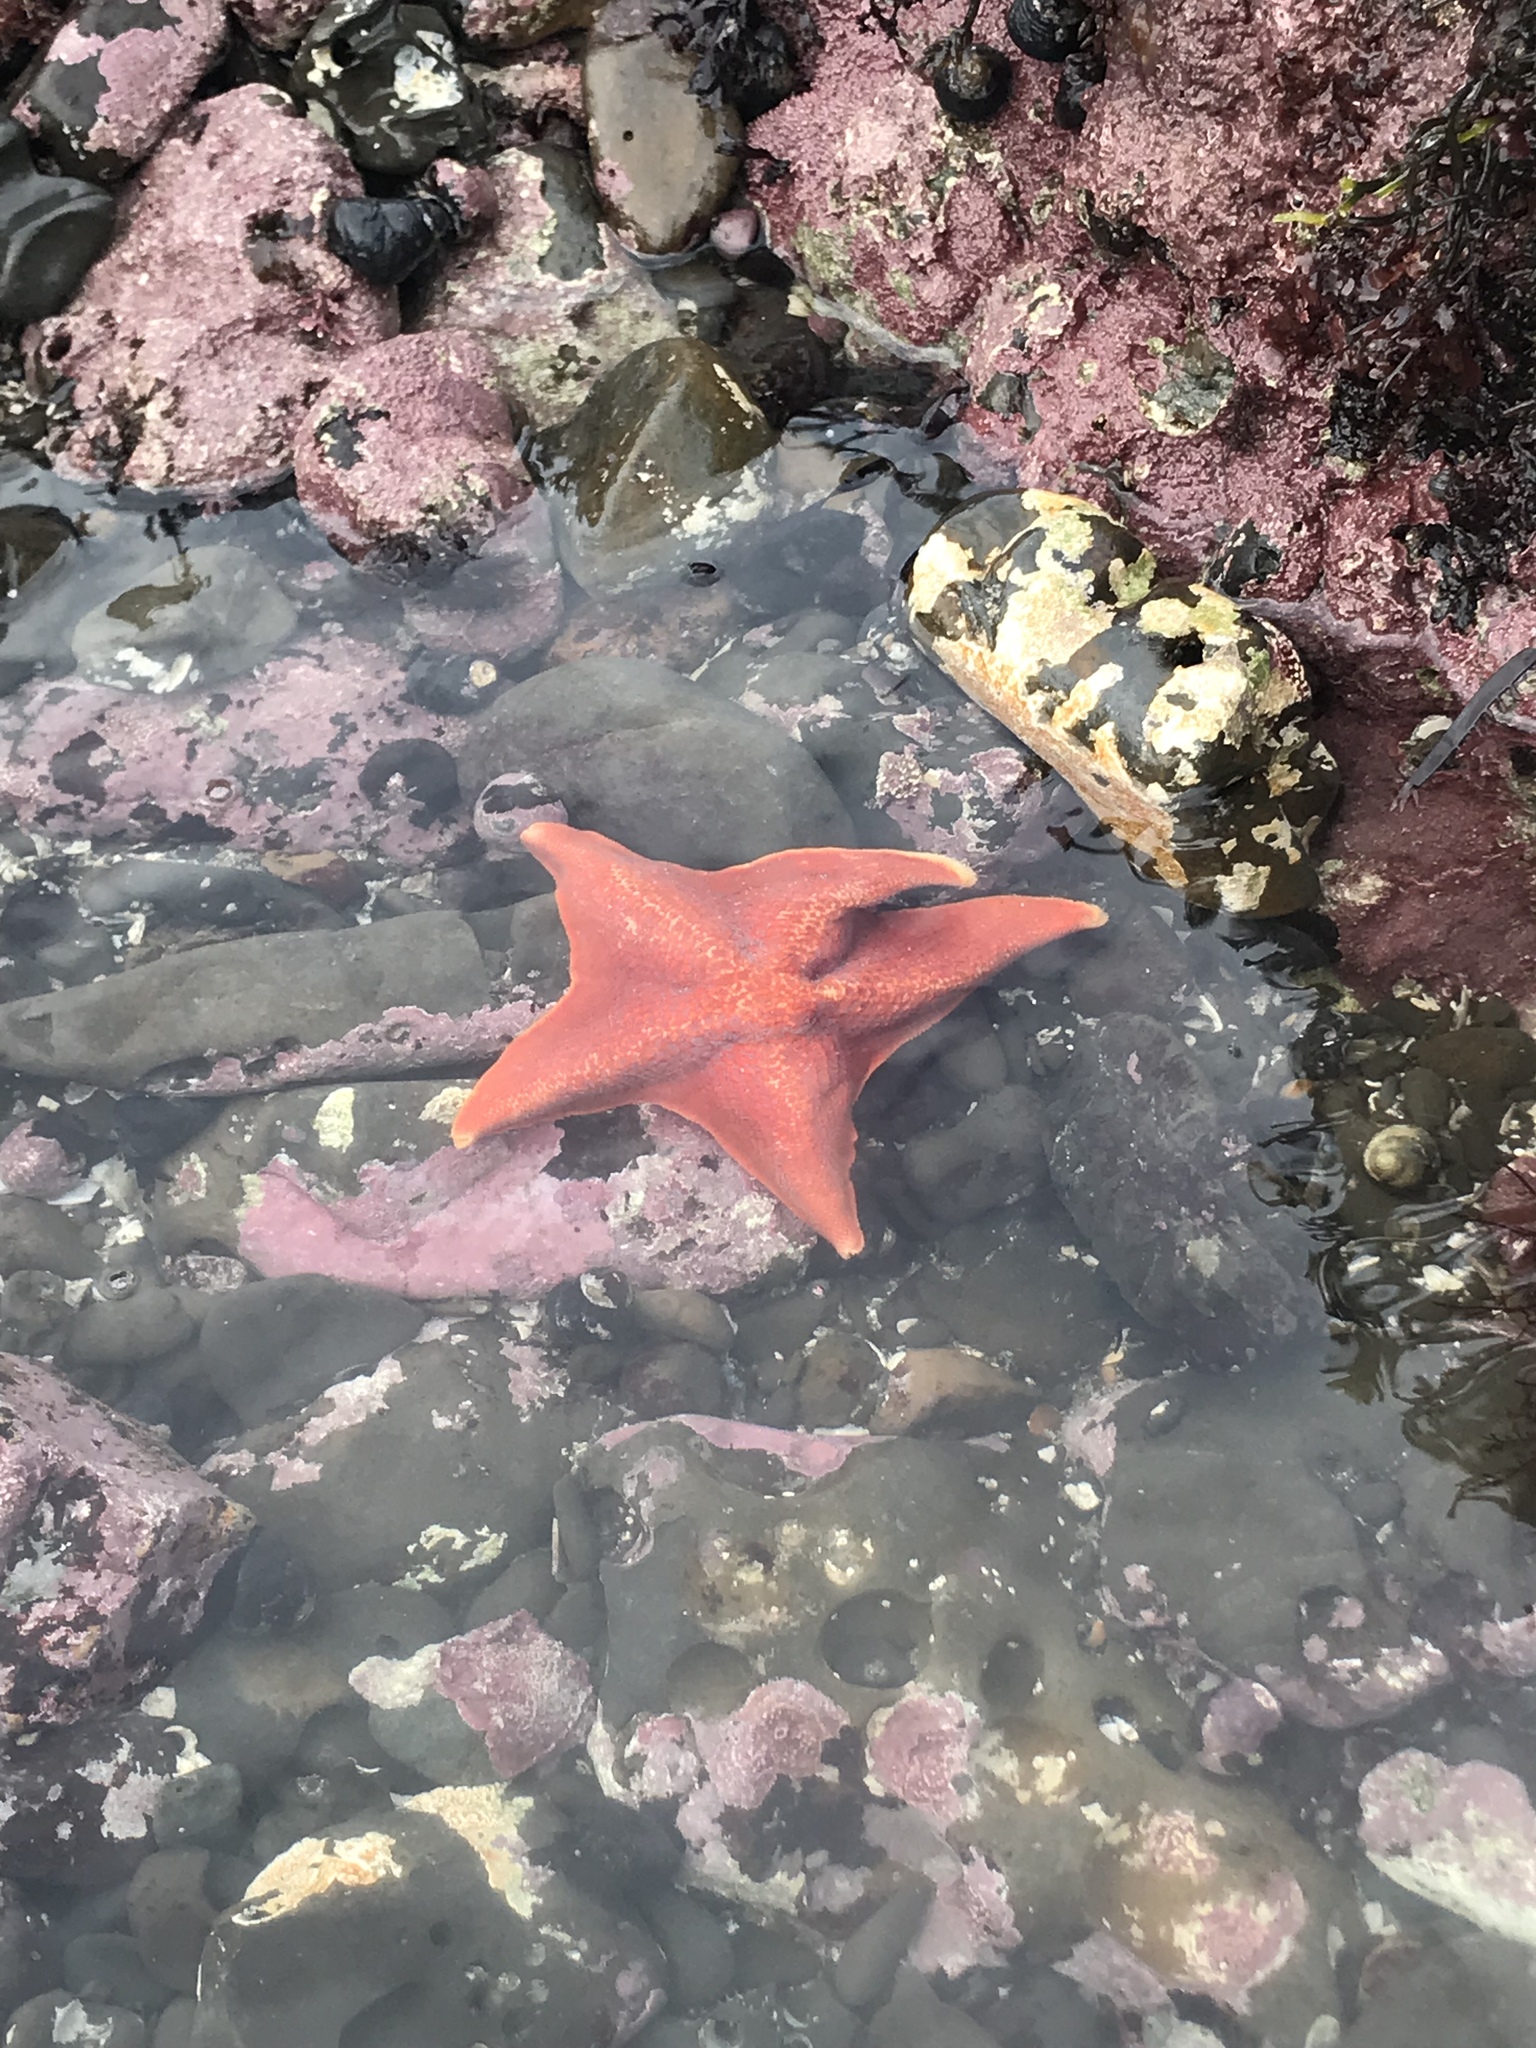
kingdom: Animalia
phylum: Echinodermata
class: Asteroidea
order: Valvatida
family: Asterinidae
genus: Patiria
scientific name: Patiria miniata
